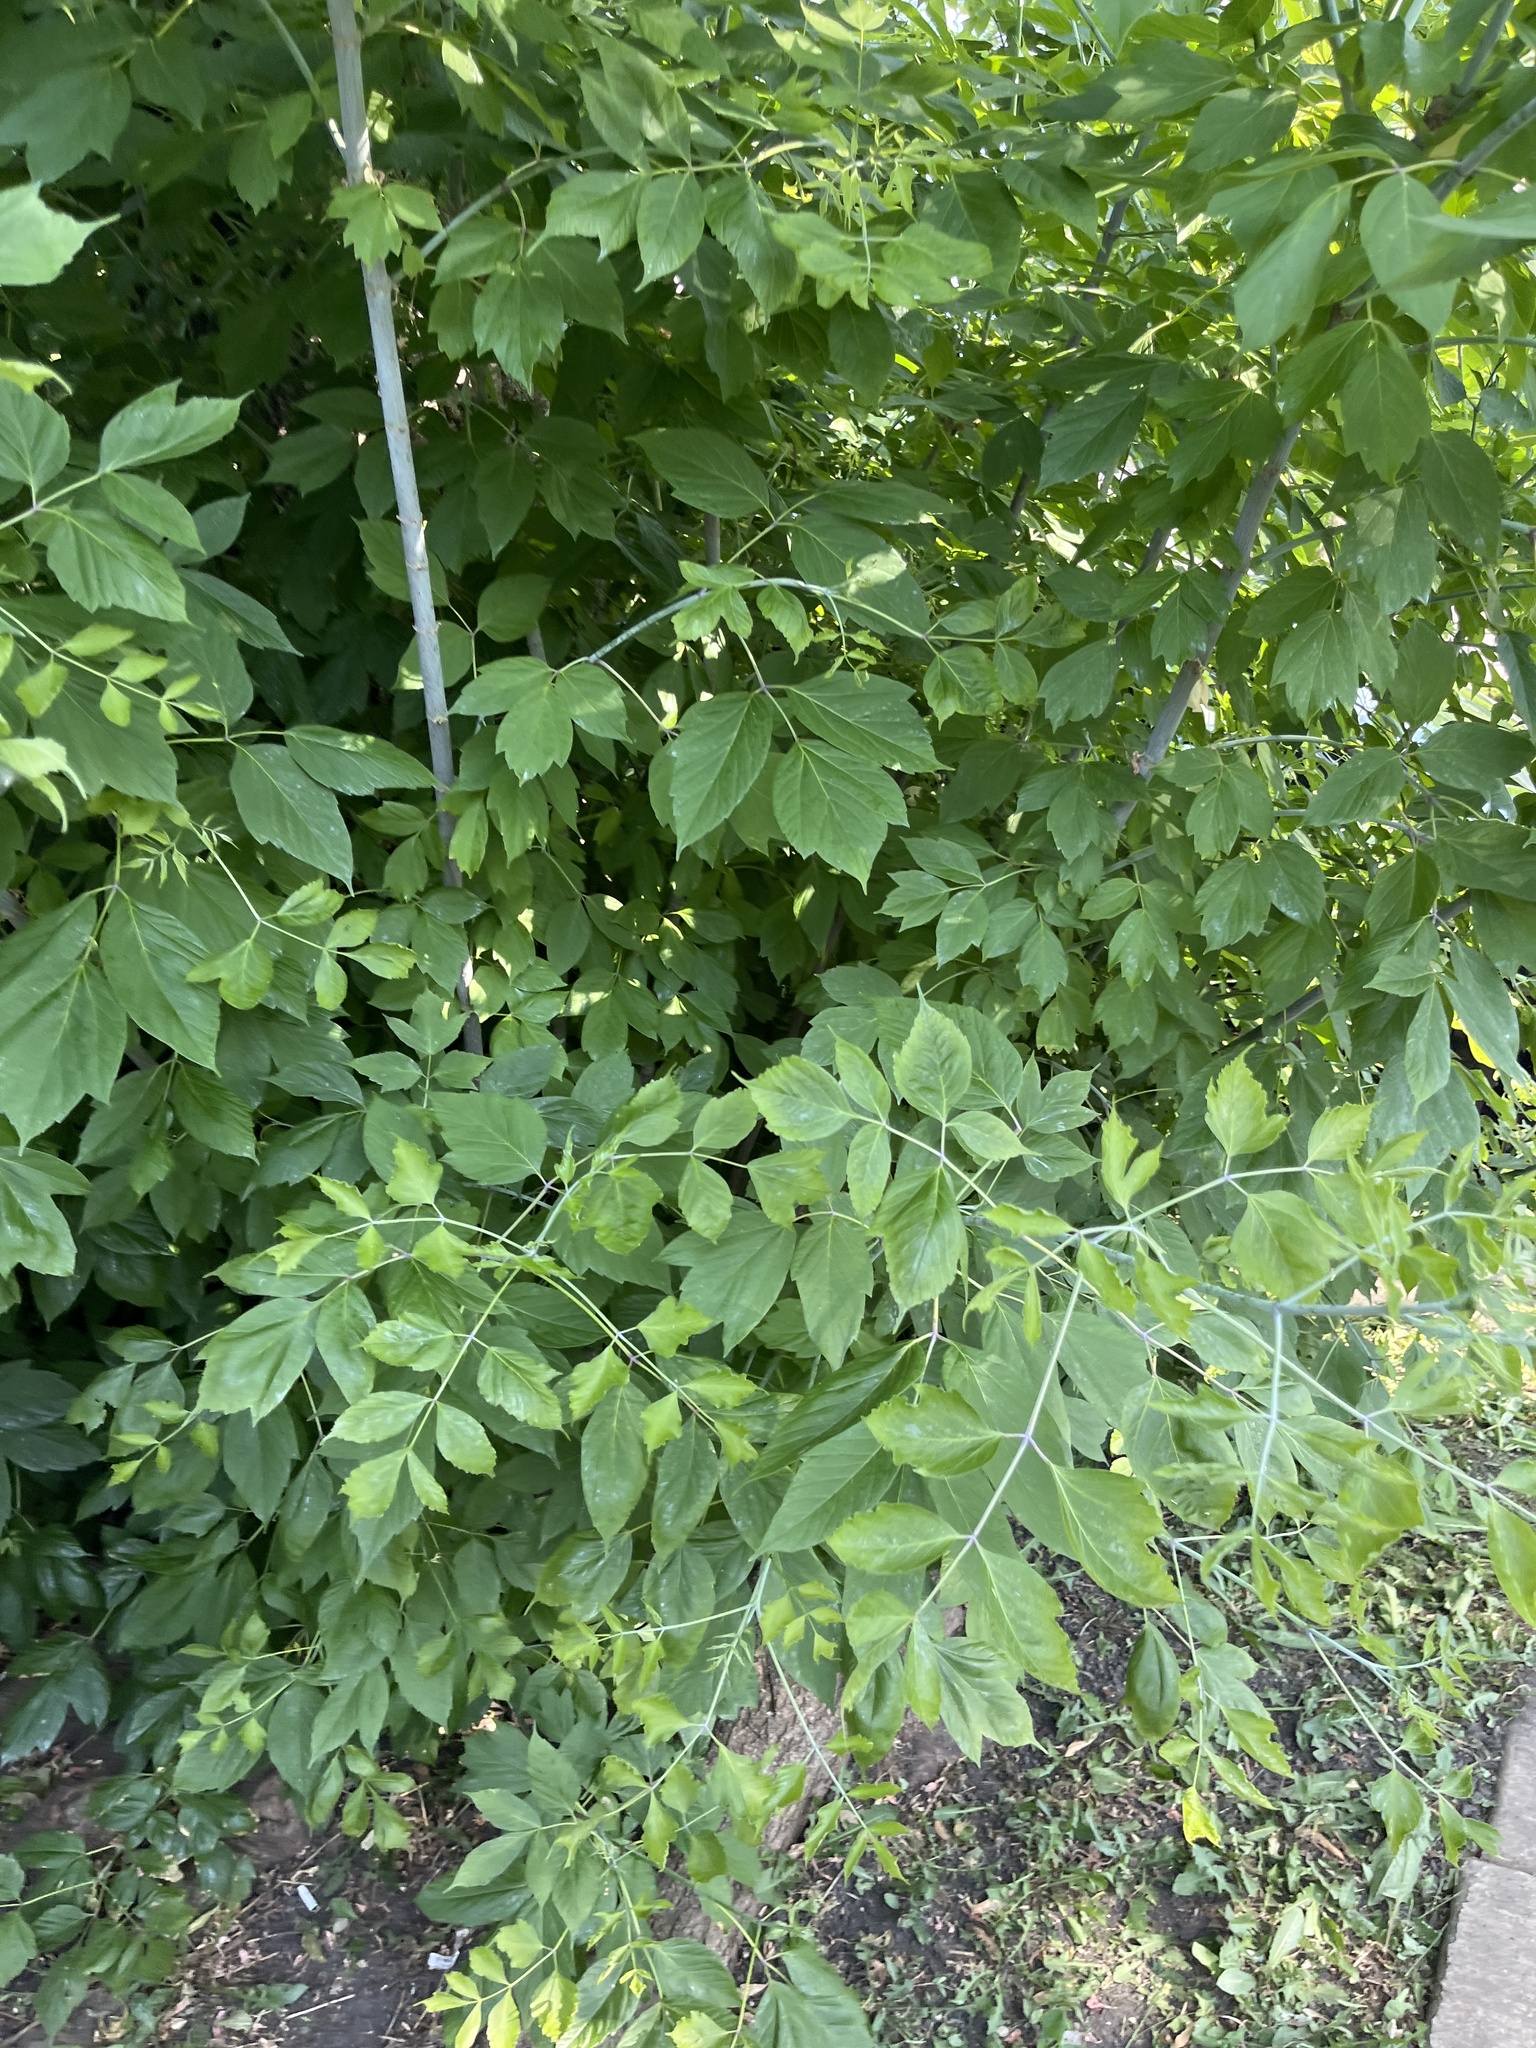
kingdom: Plantae
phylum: Tracheophyta
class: Magnoliopsida
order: Sapindales
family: Sapindaceae
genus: Acer
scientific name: Acer negundo
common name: Ashleaf maple
